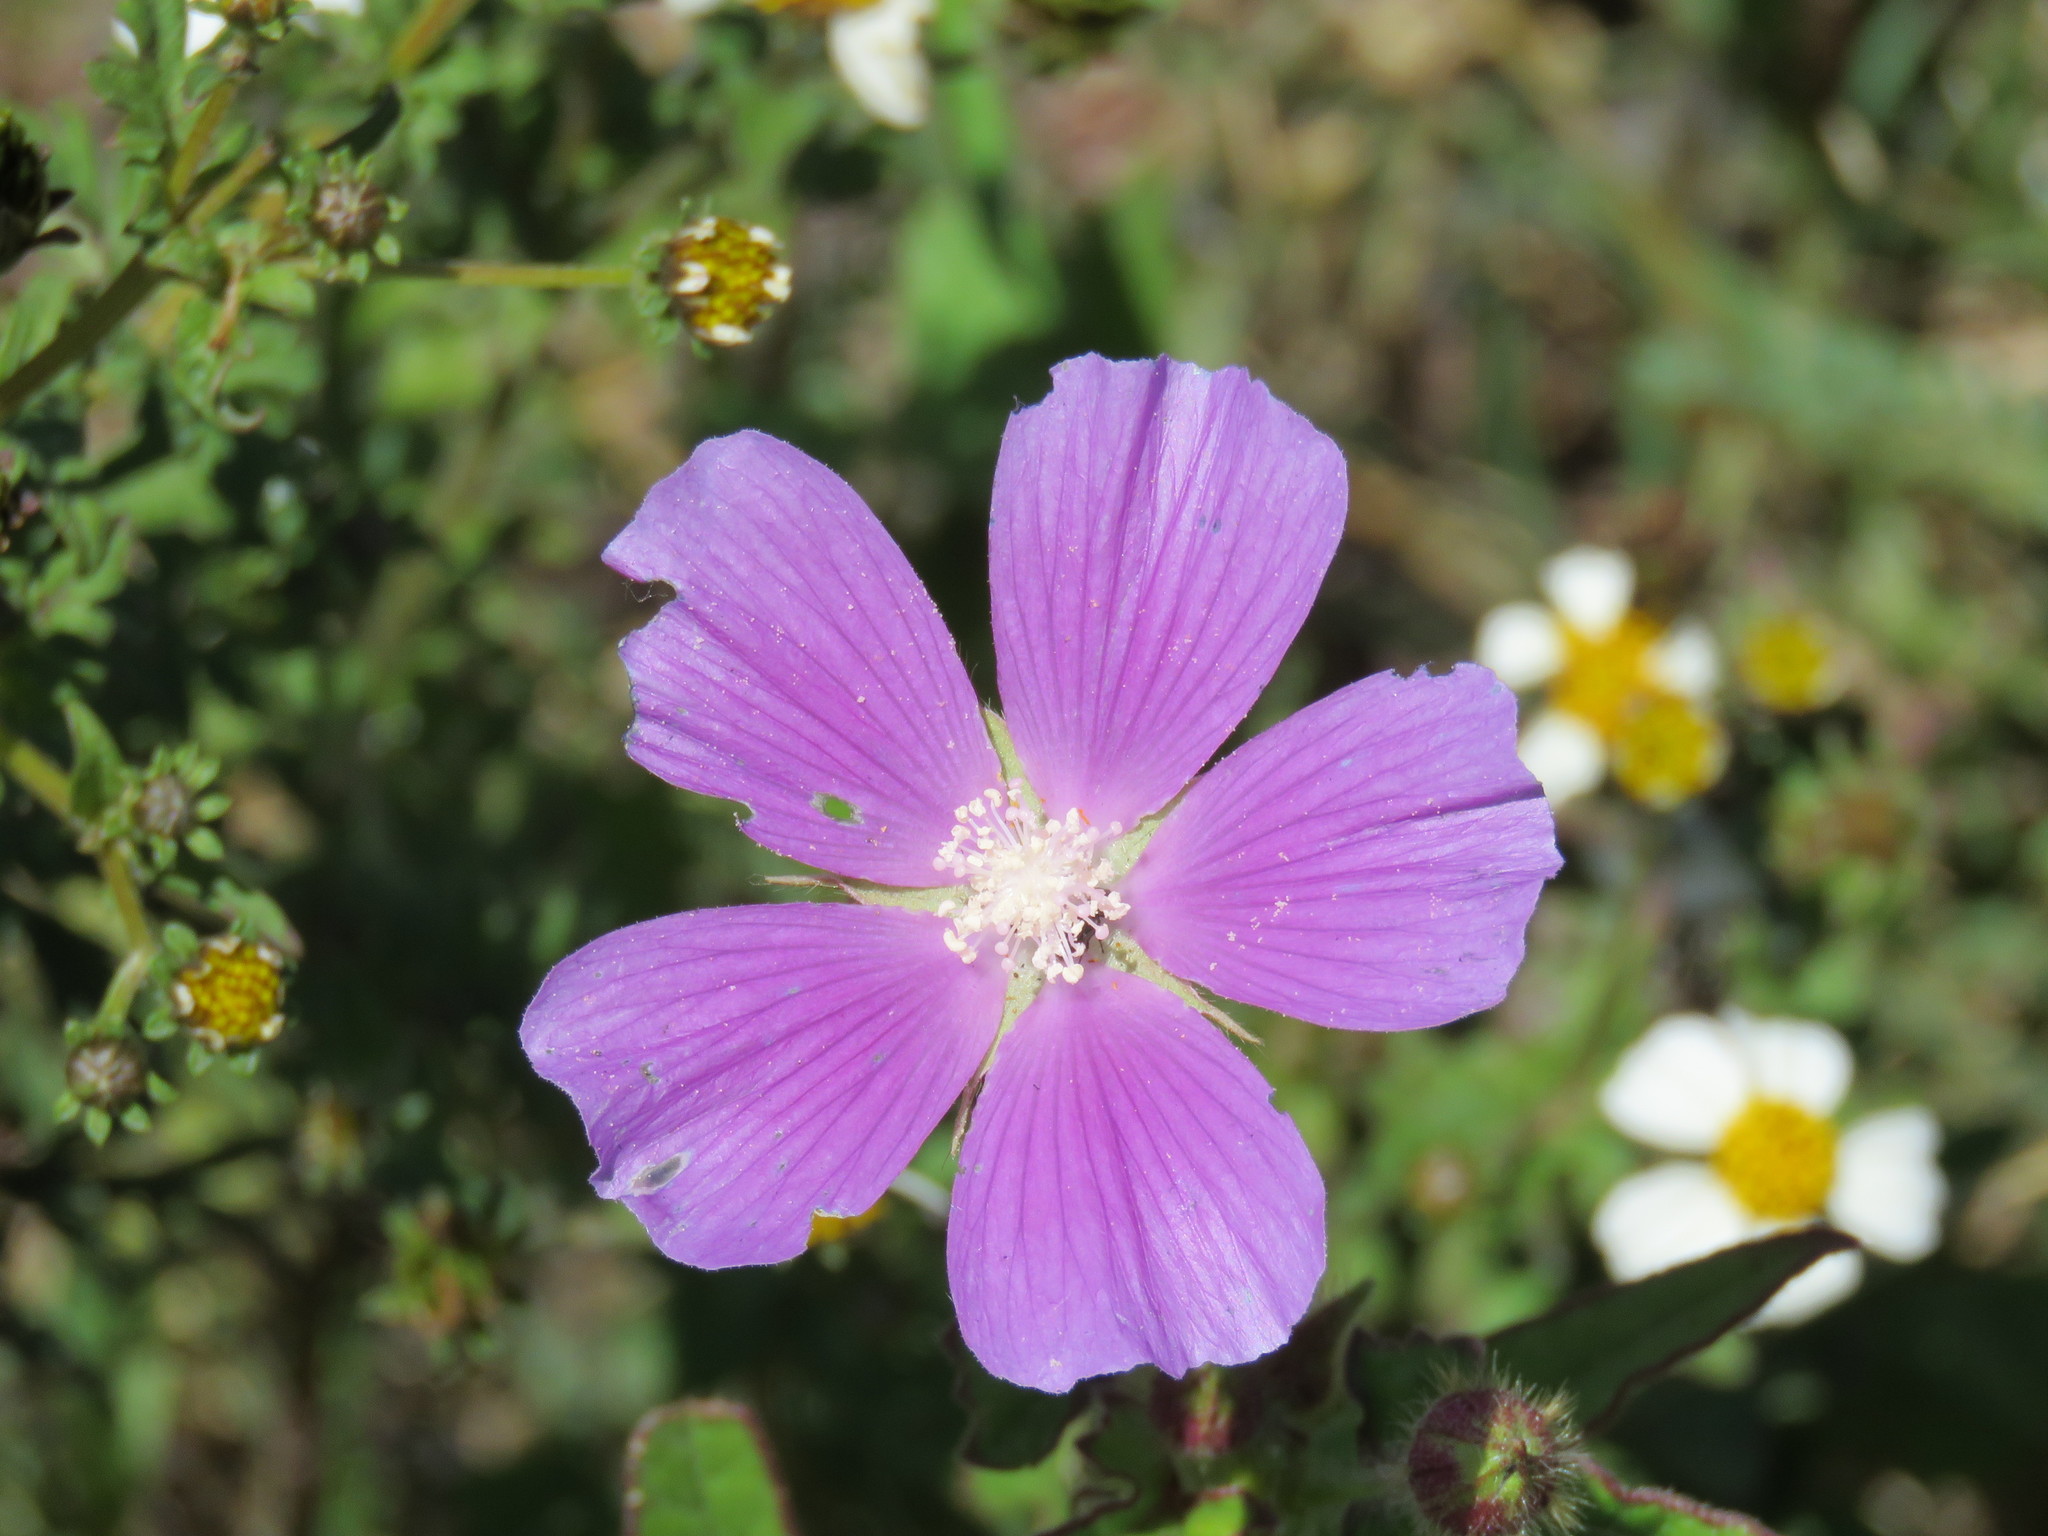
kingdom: Plantae
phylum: Tracheophyta
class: Magnoliopsida
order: Malvales
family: Malvaceae
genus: Anoda
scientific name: Anoda cristata
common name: Spurred anoda
